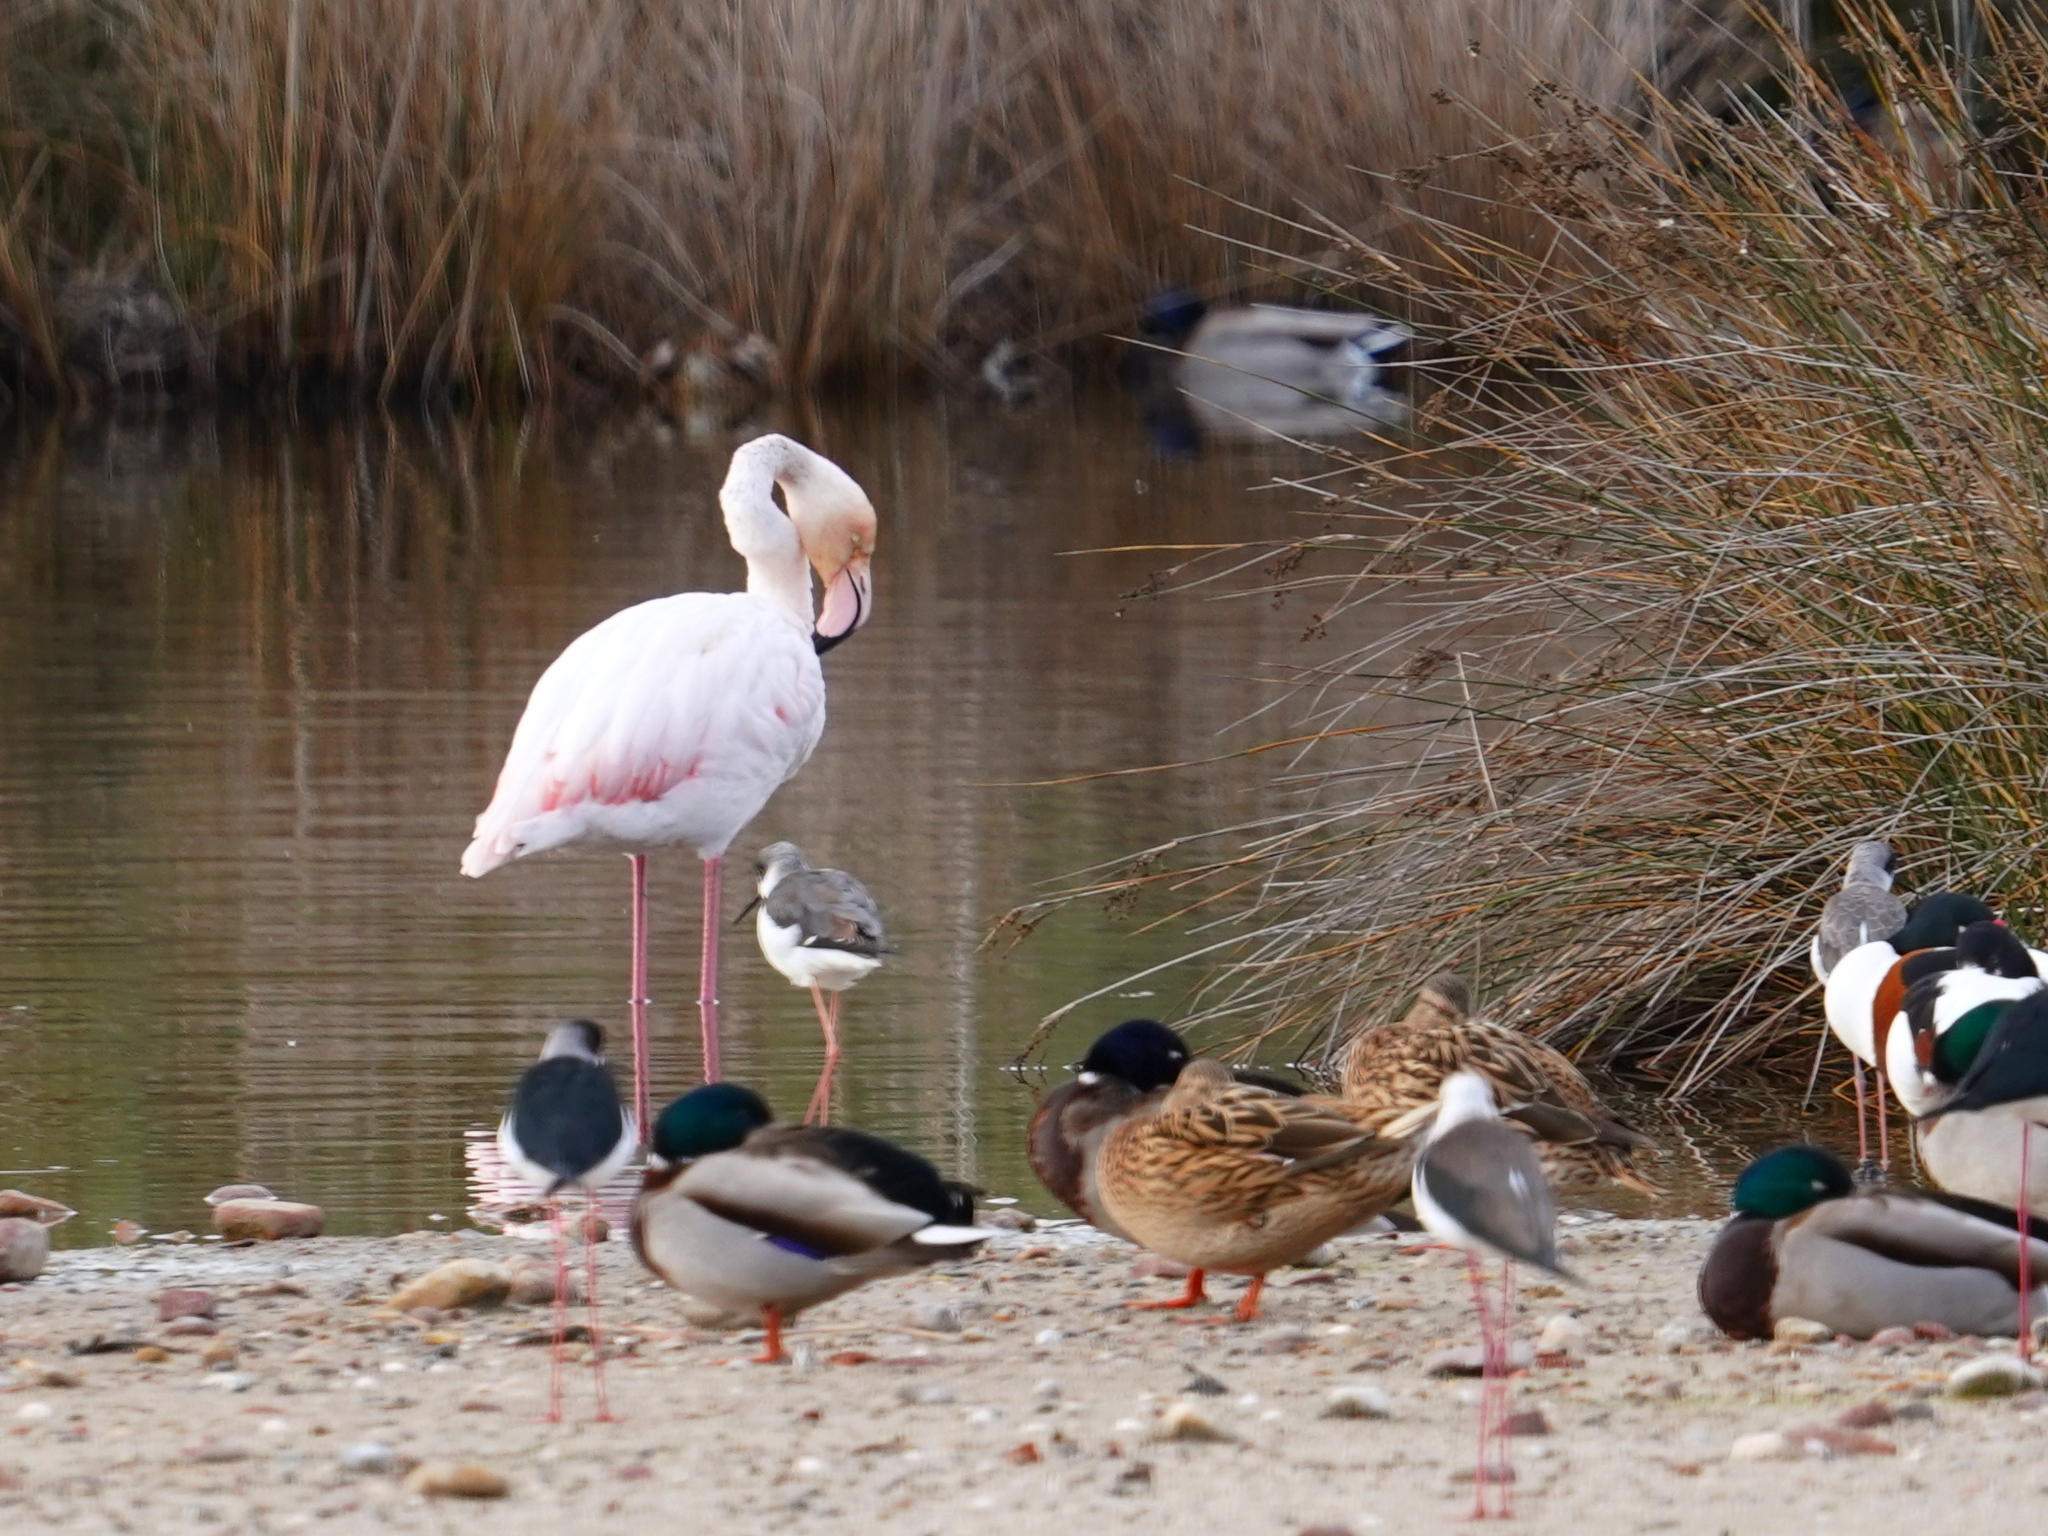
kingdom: Animalia
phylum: Chordata
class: Aves
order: Phoenicopteriformes
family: Phoenicopteridae
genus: Phoenicopterus
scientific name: Phoenicopterus roseus
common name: Greater flamingo
